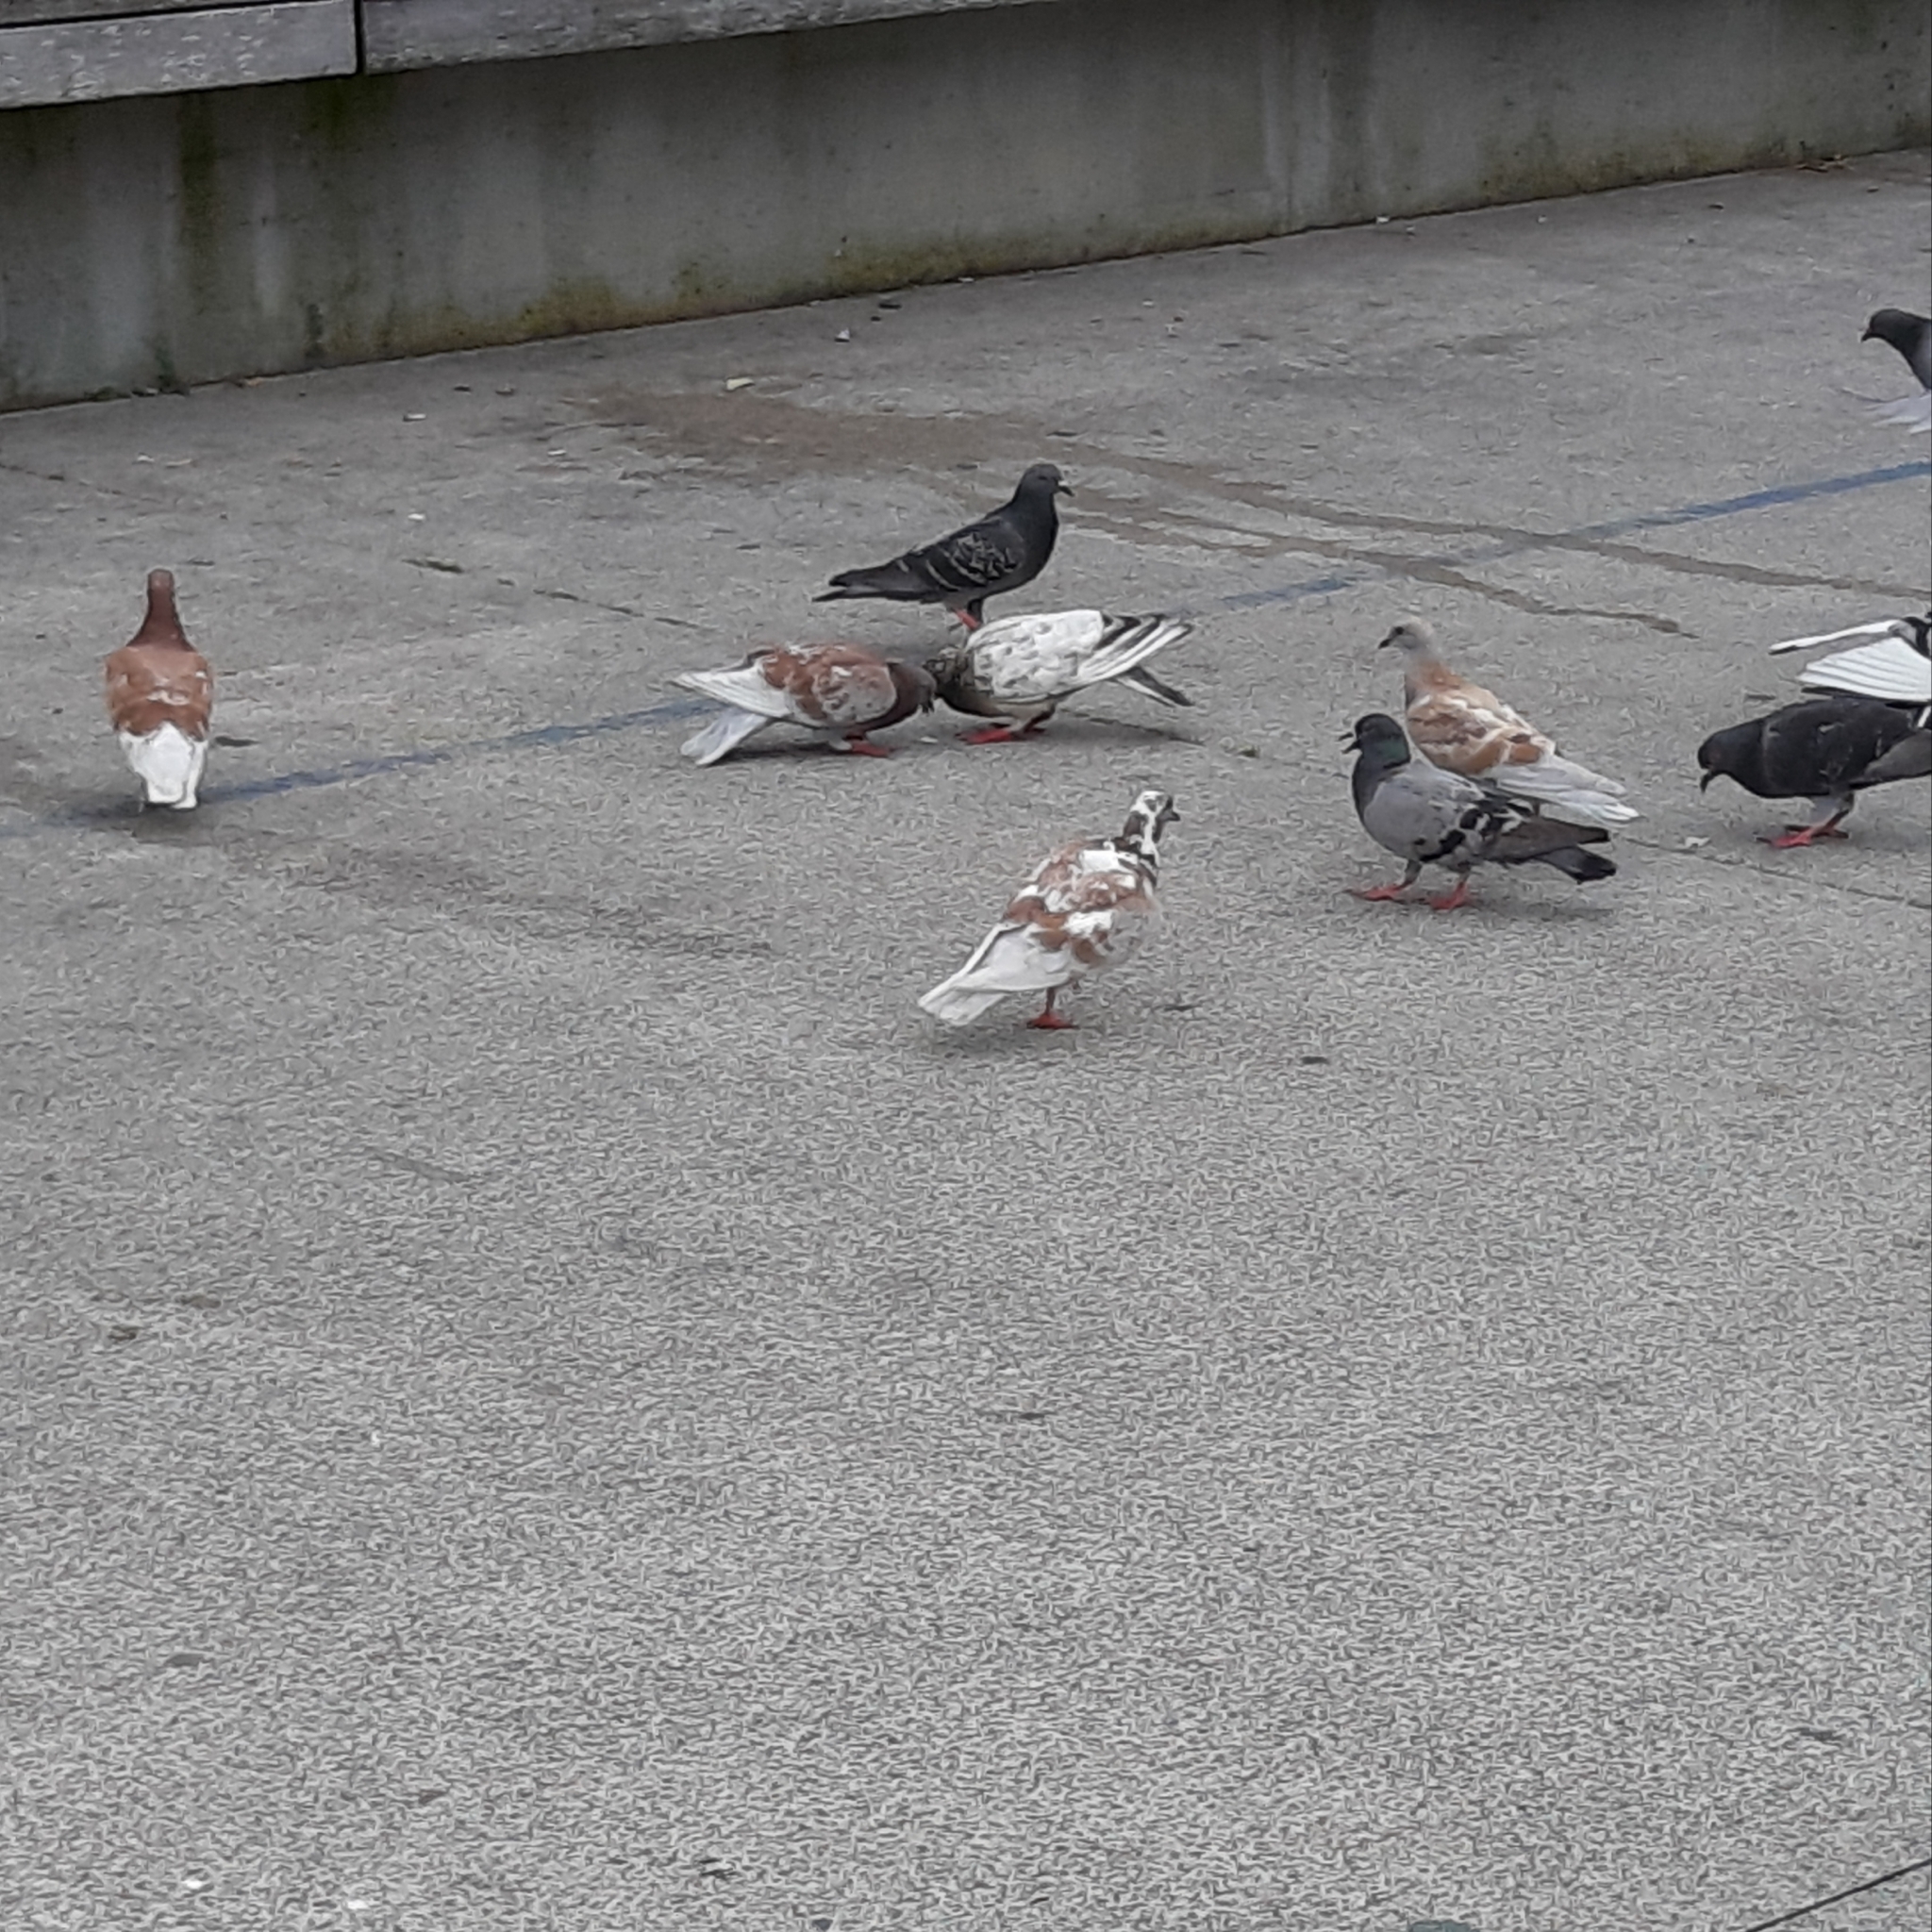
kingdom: Animalia
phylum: Chordata
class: Aves
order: Columbiformes
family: Columbidae
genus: Columba
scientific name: Columba livia
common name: Rock pigeon
